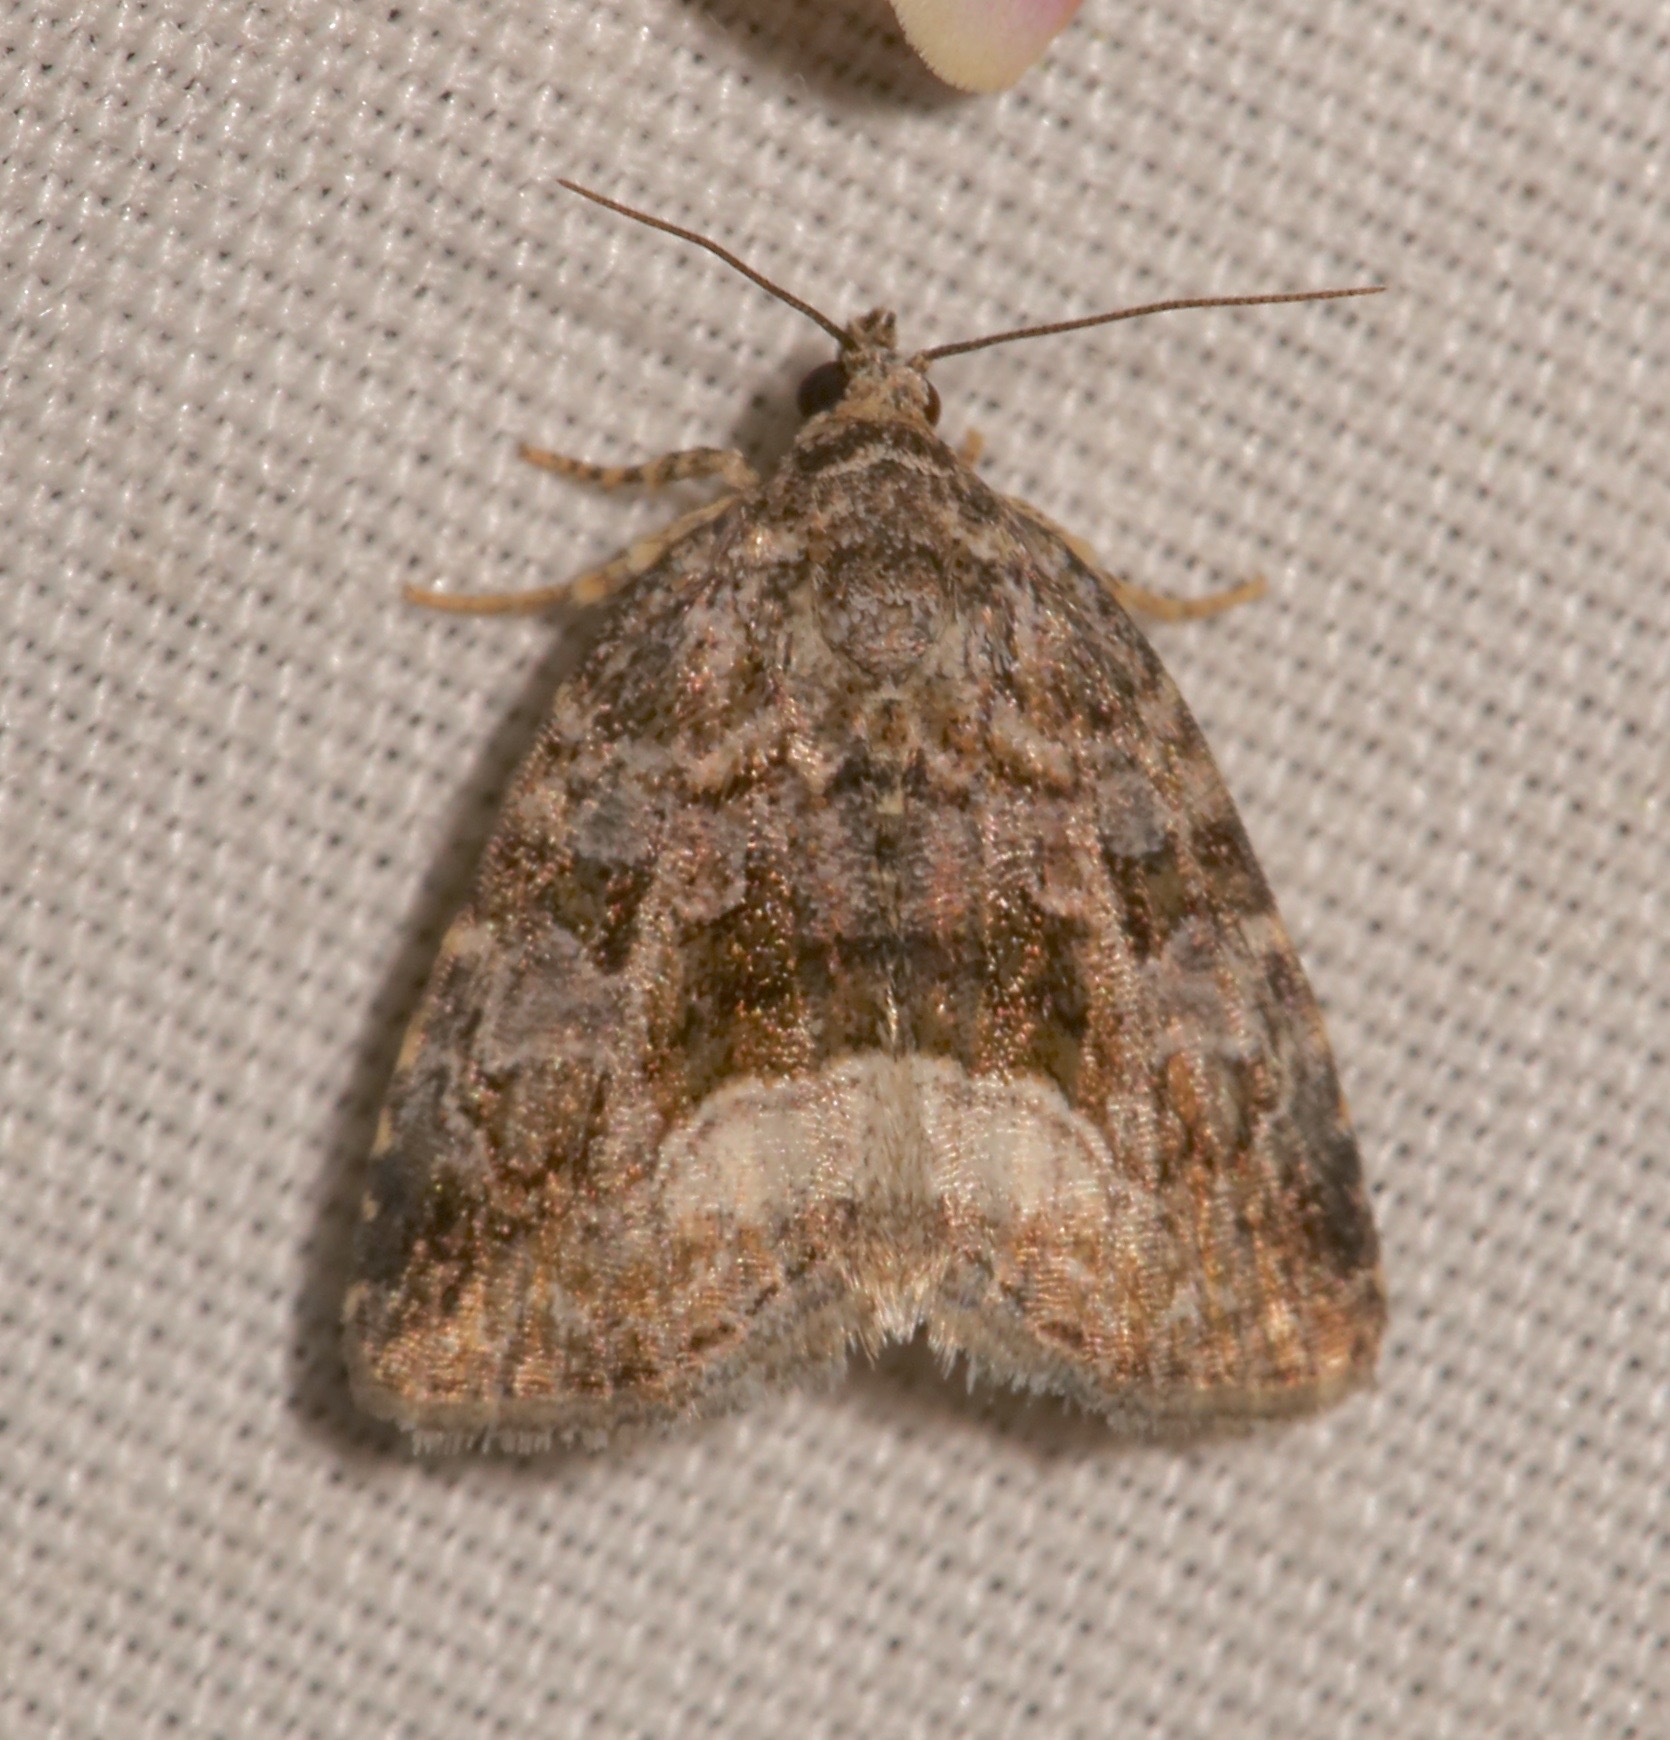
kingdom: Animalia
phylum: Arthropoda
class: Insecta
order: Lepidoptera
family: Noctuidae
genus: Protodeltote
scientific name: Protodeltote muscosula
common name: Large mossy glyph
